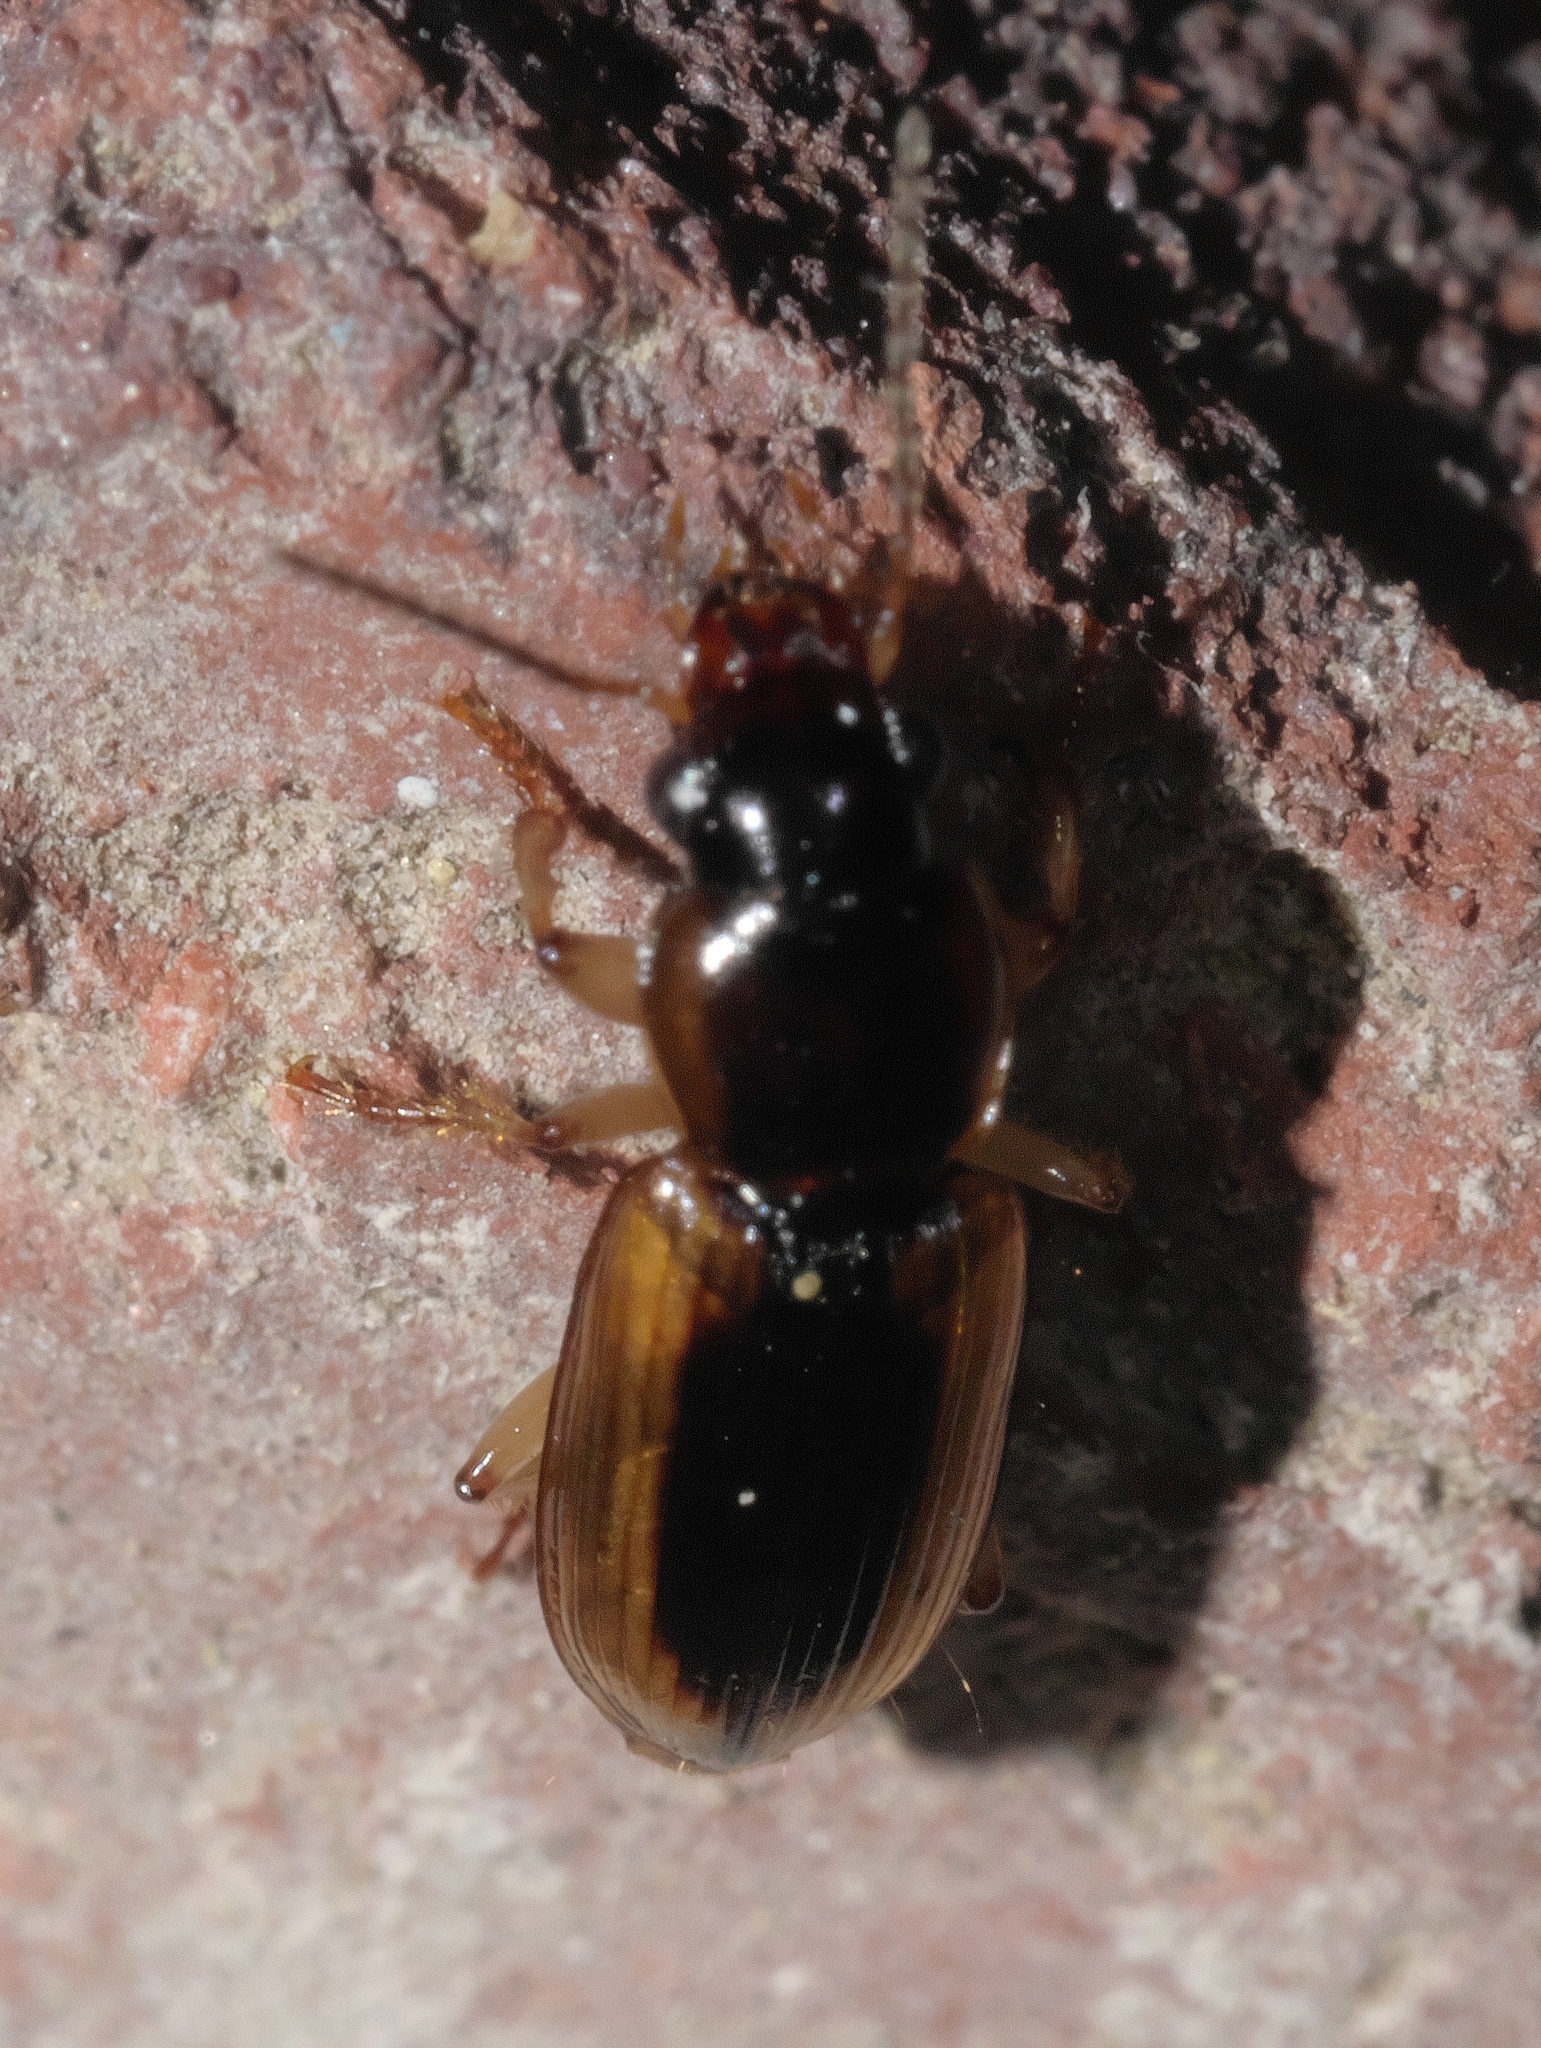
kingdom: Animalia
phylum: Arthropoda
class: Insecta
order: Coleoptera
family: Carabidae
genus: Stenolophus
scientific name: Stenolophus lecontei
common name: Leconte's seedcorn beetle
